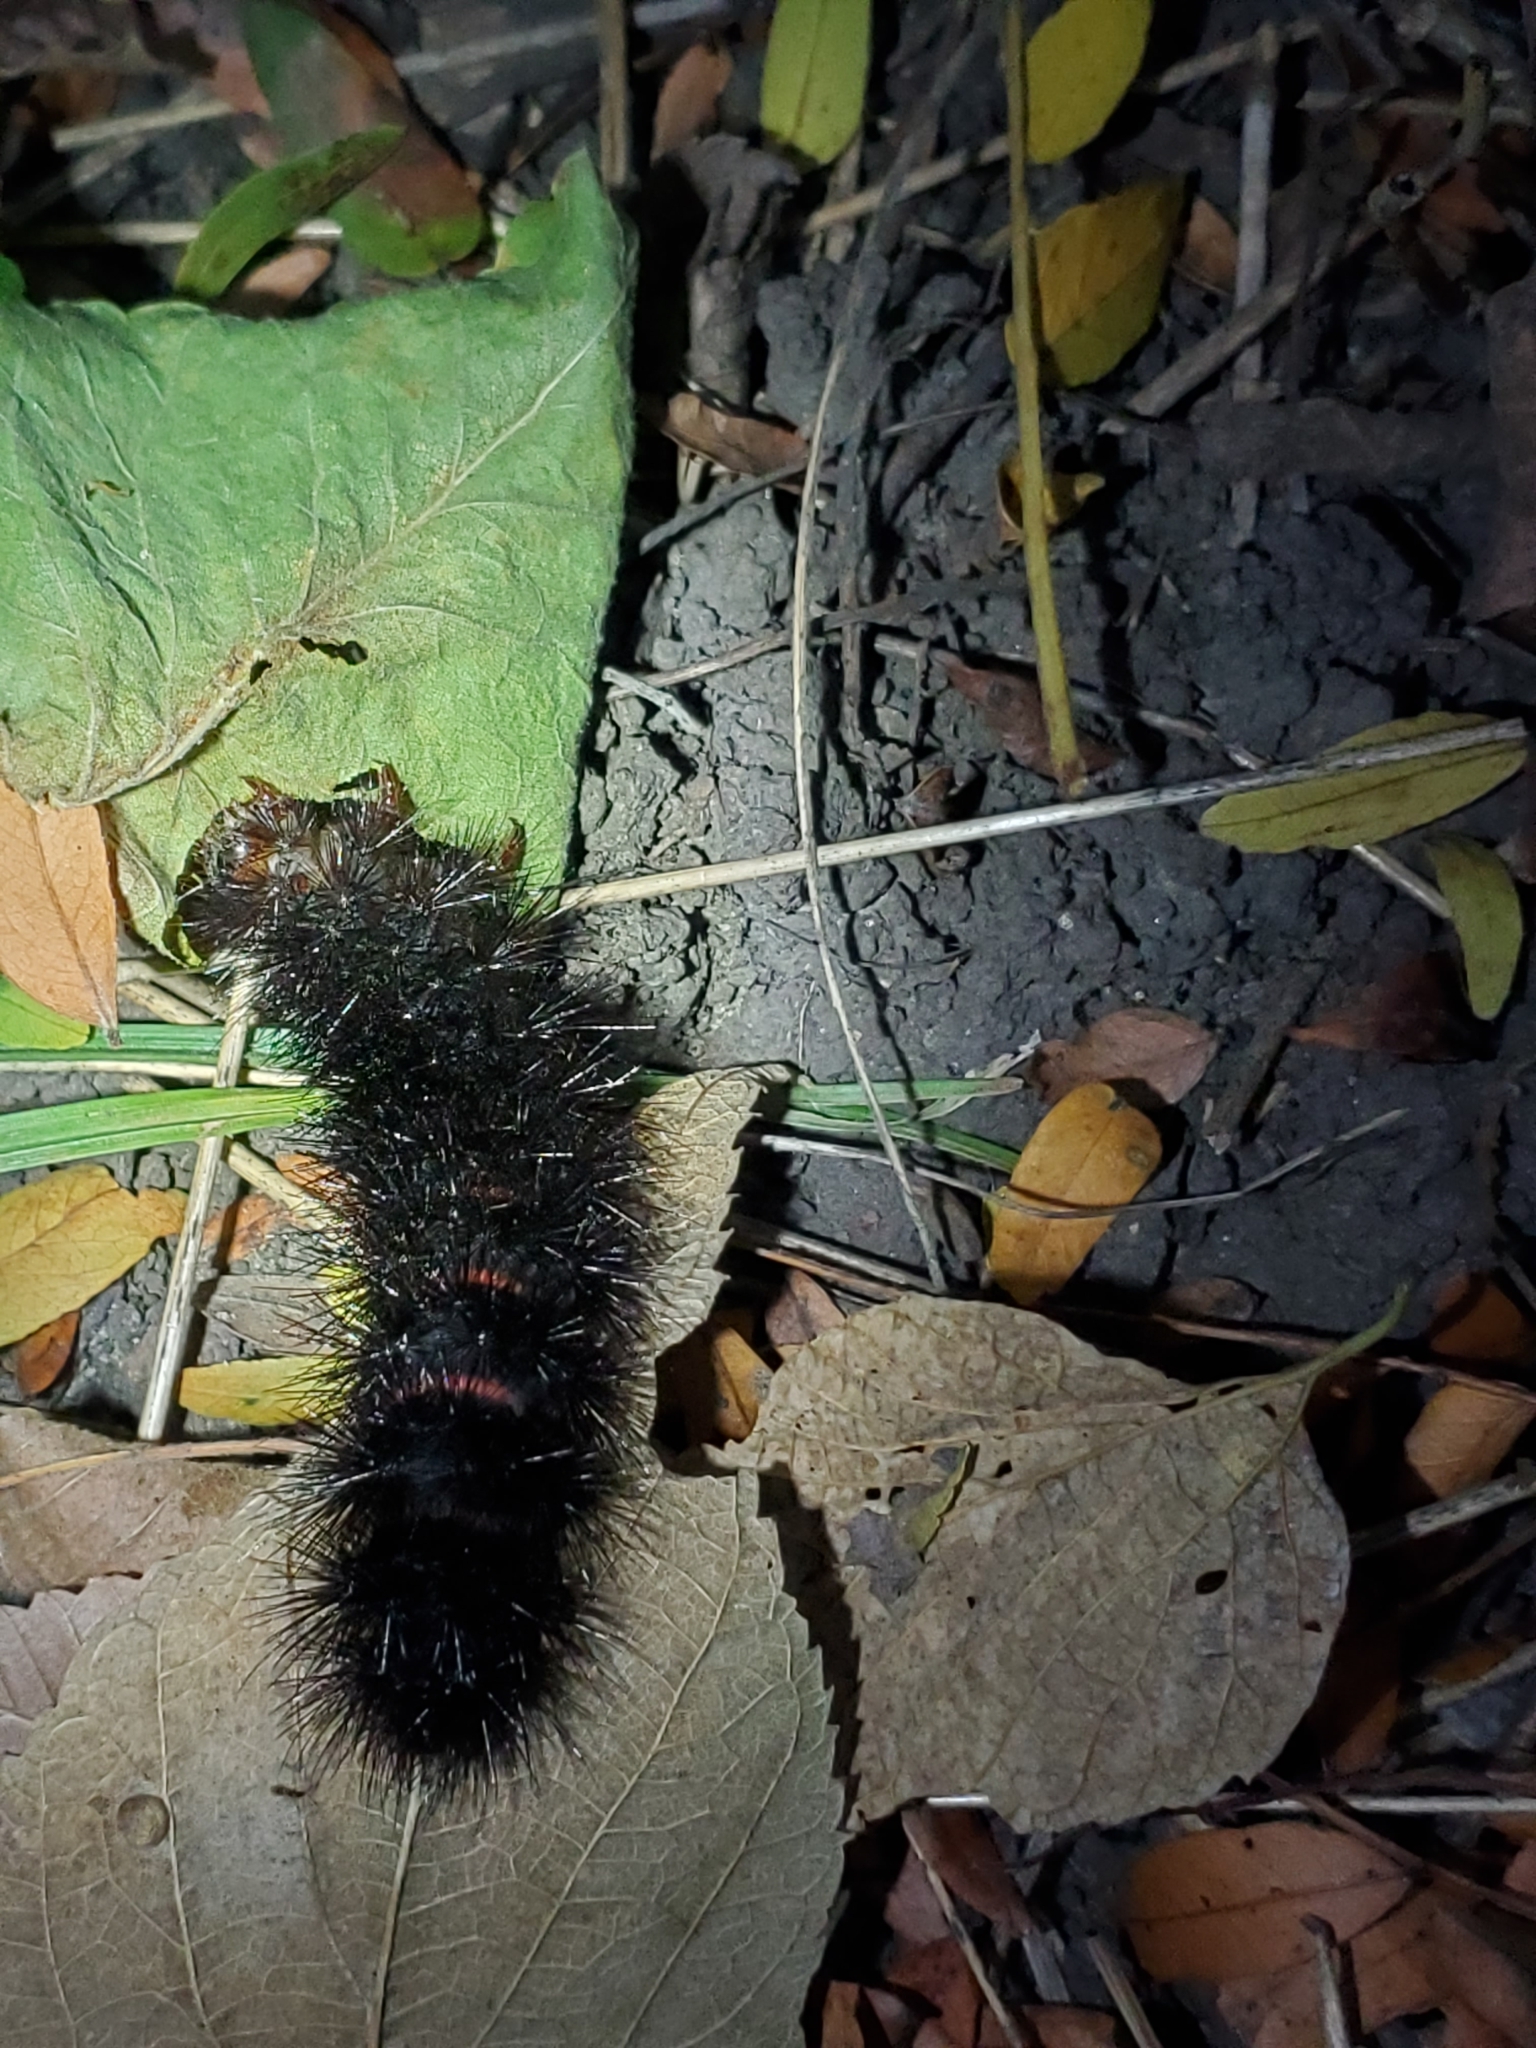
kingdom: Animalia
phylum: Arthropoda
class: Insecta
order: Lepidoptera
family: Erebidae
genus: Hypercompe
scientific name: Hypercompe scribonia
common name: Giant leopard moth
